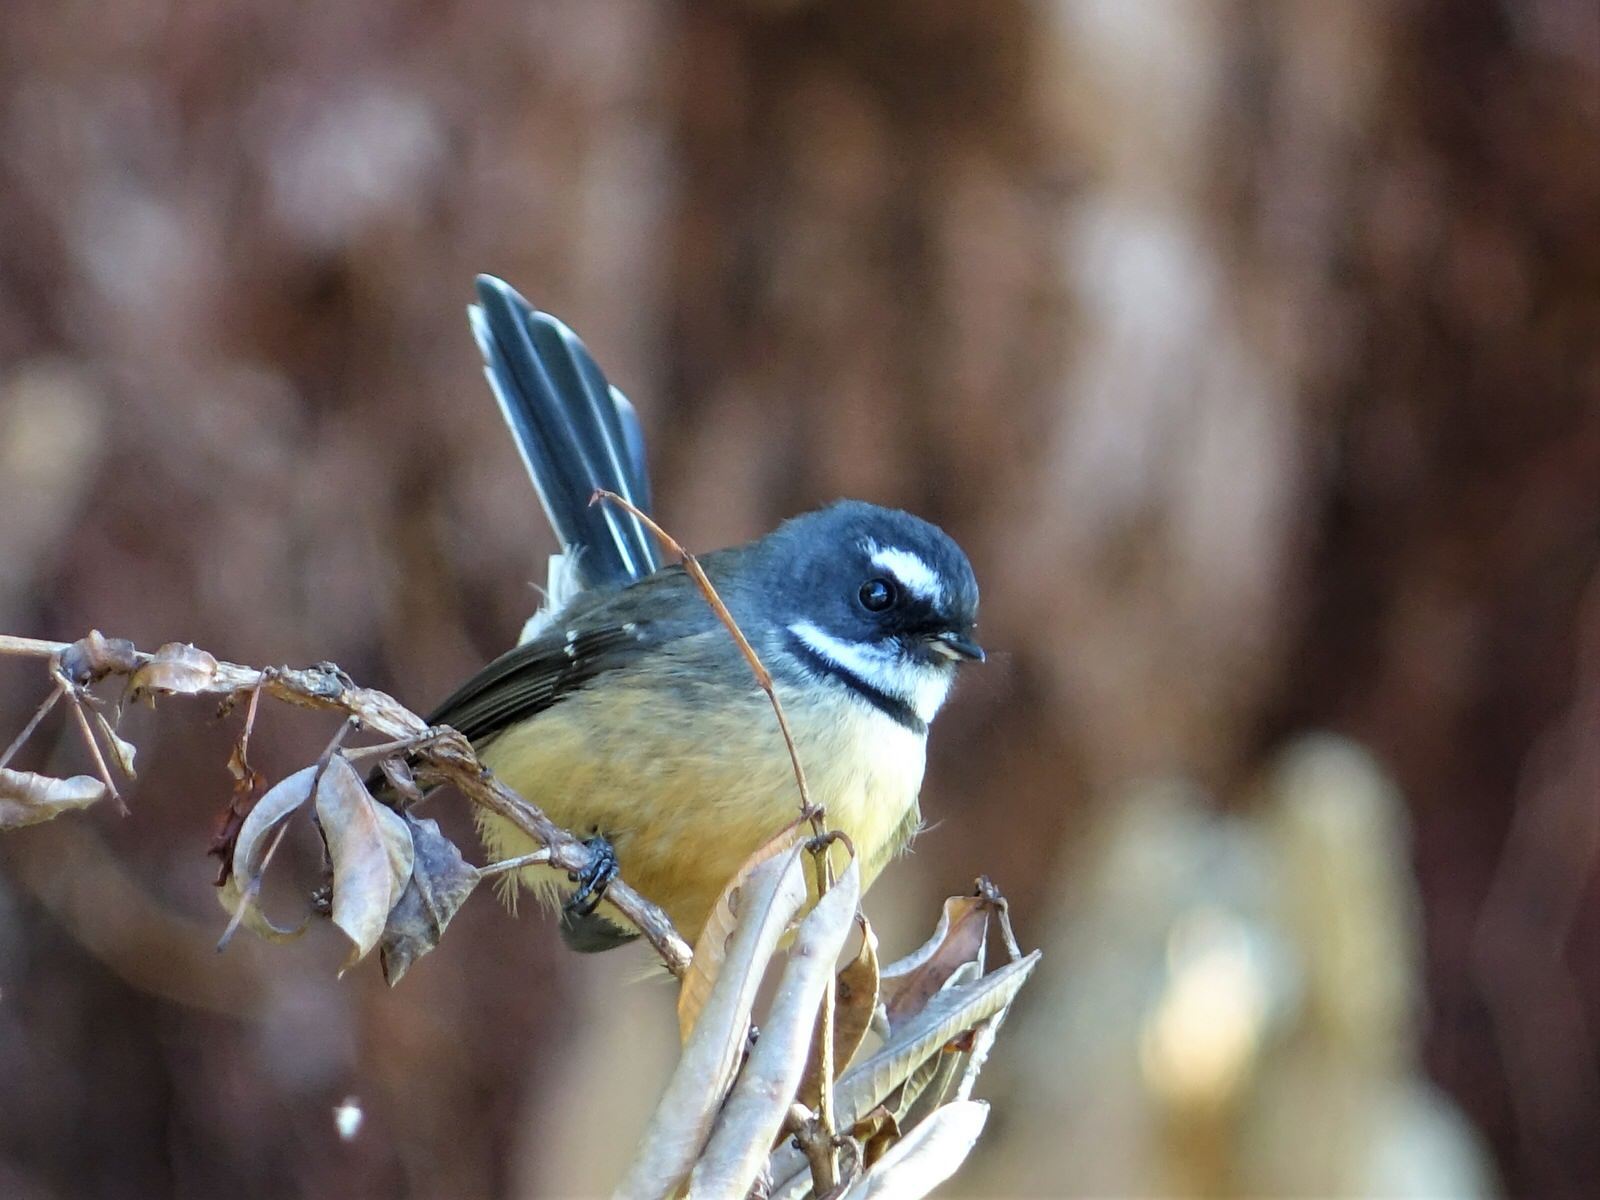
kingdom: Animalia
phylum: Chordata
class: Aves
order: Passeriformes
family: Rhipiduridae
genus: Rhipidura
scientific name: Rhipidura fuliginosa
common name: New zealand fantail
